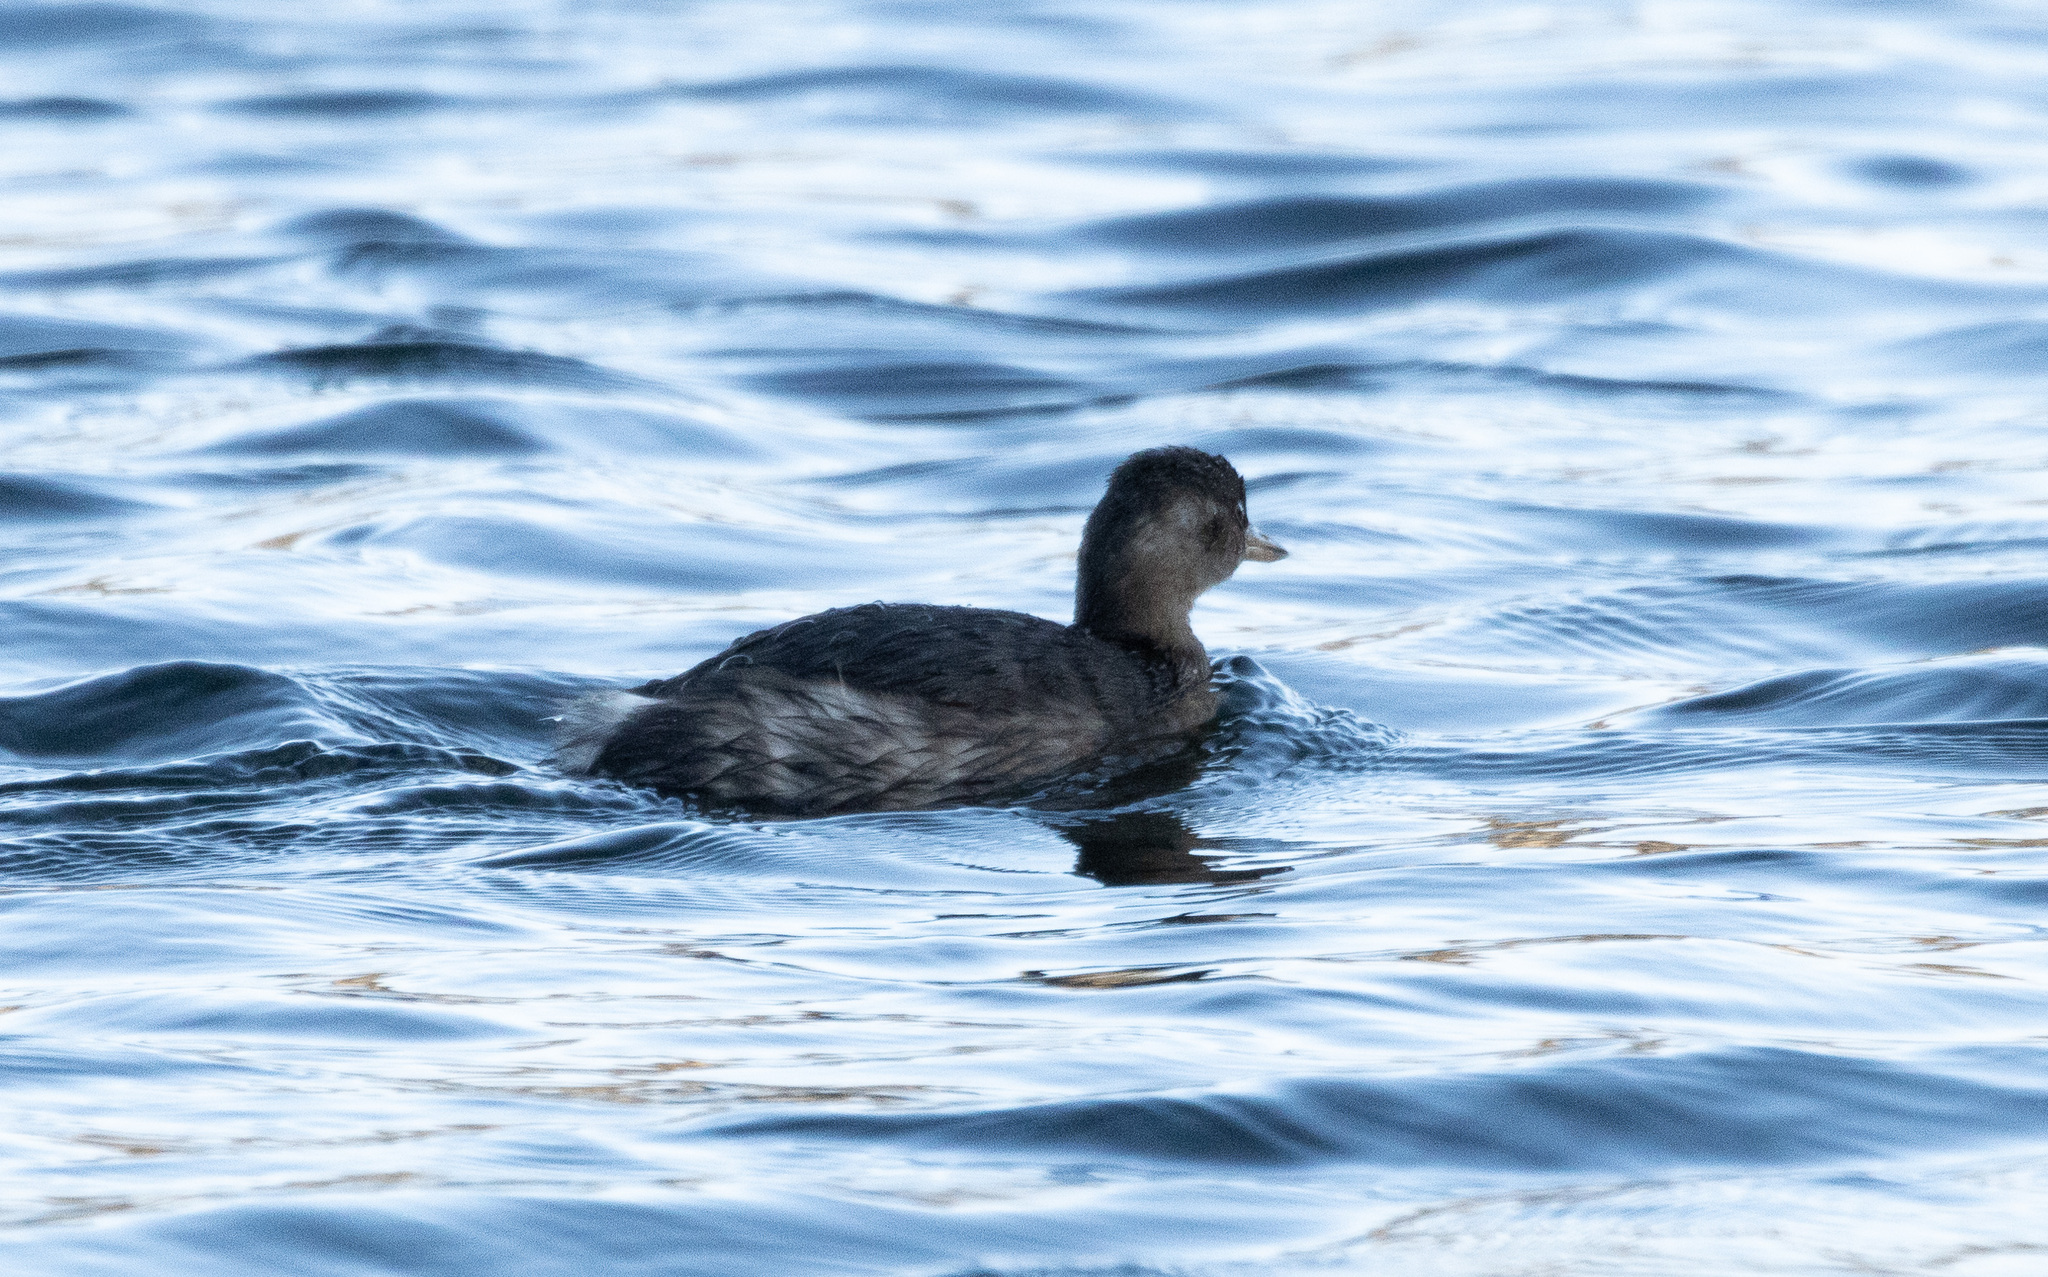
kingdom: Animalia
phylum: Chordata
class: Aves
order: Podicipediformes
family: Podicipedidae
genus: Tachybaptus
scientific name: Tachybaptus ruficollis
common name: Little grebe
